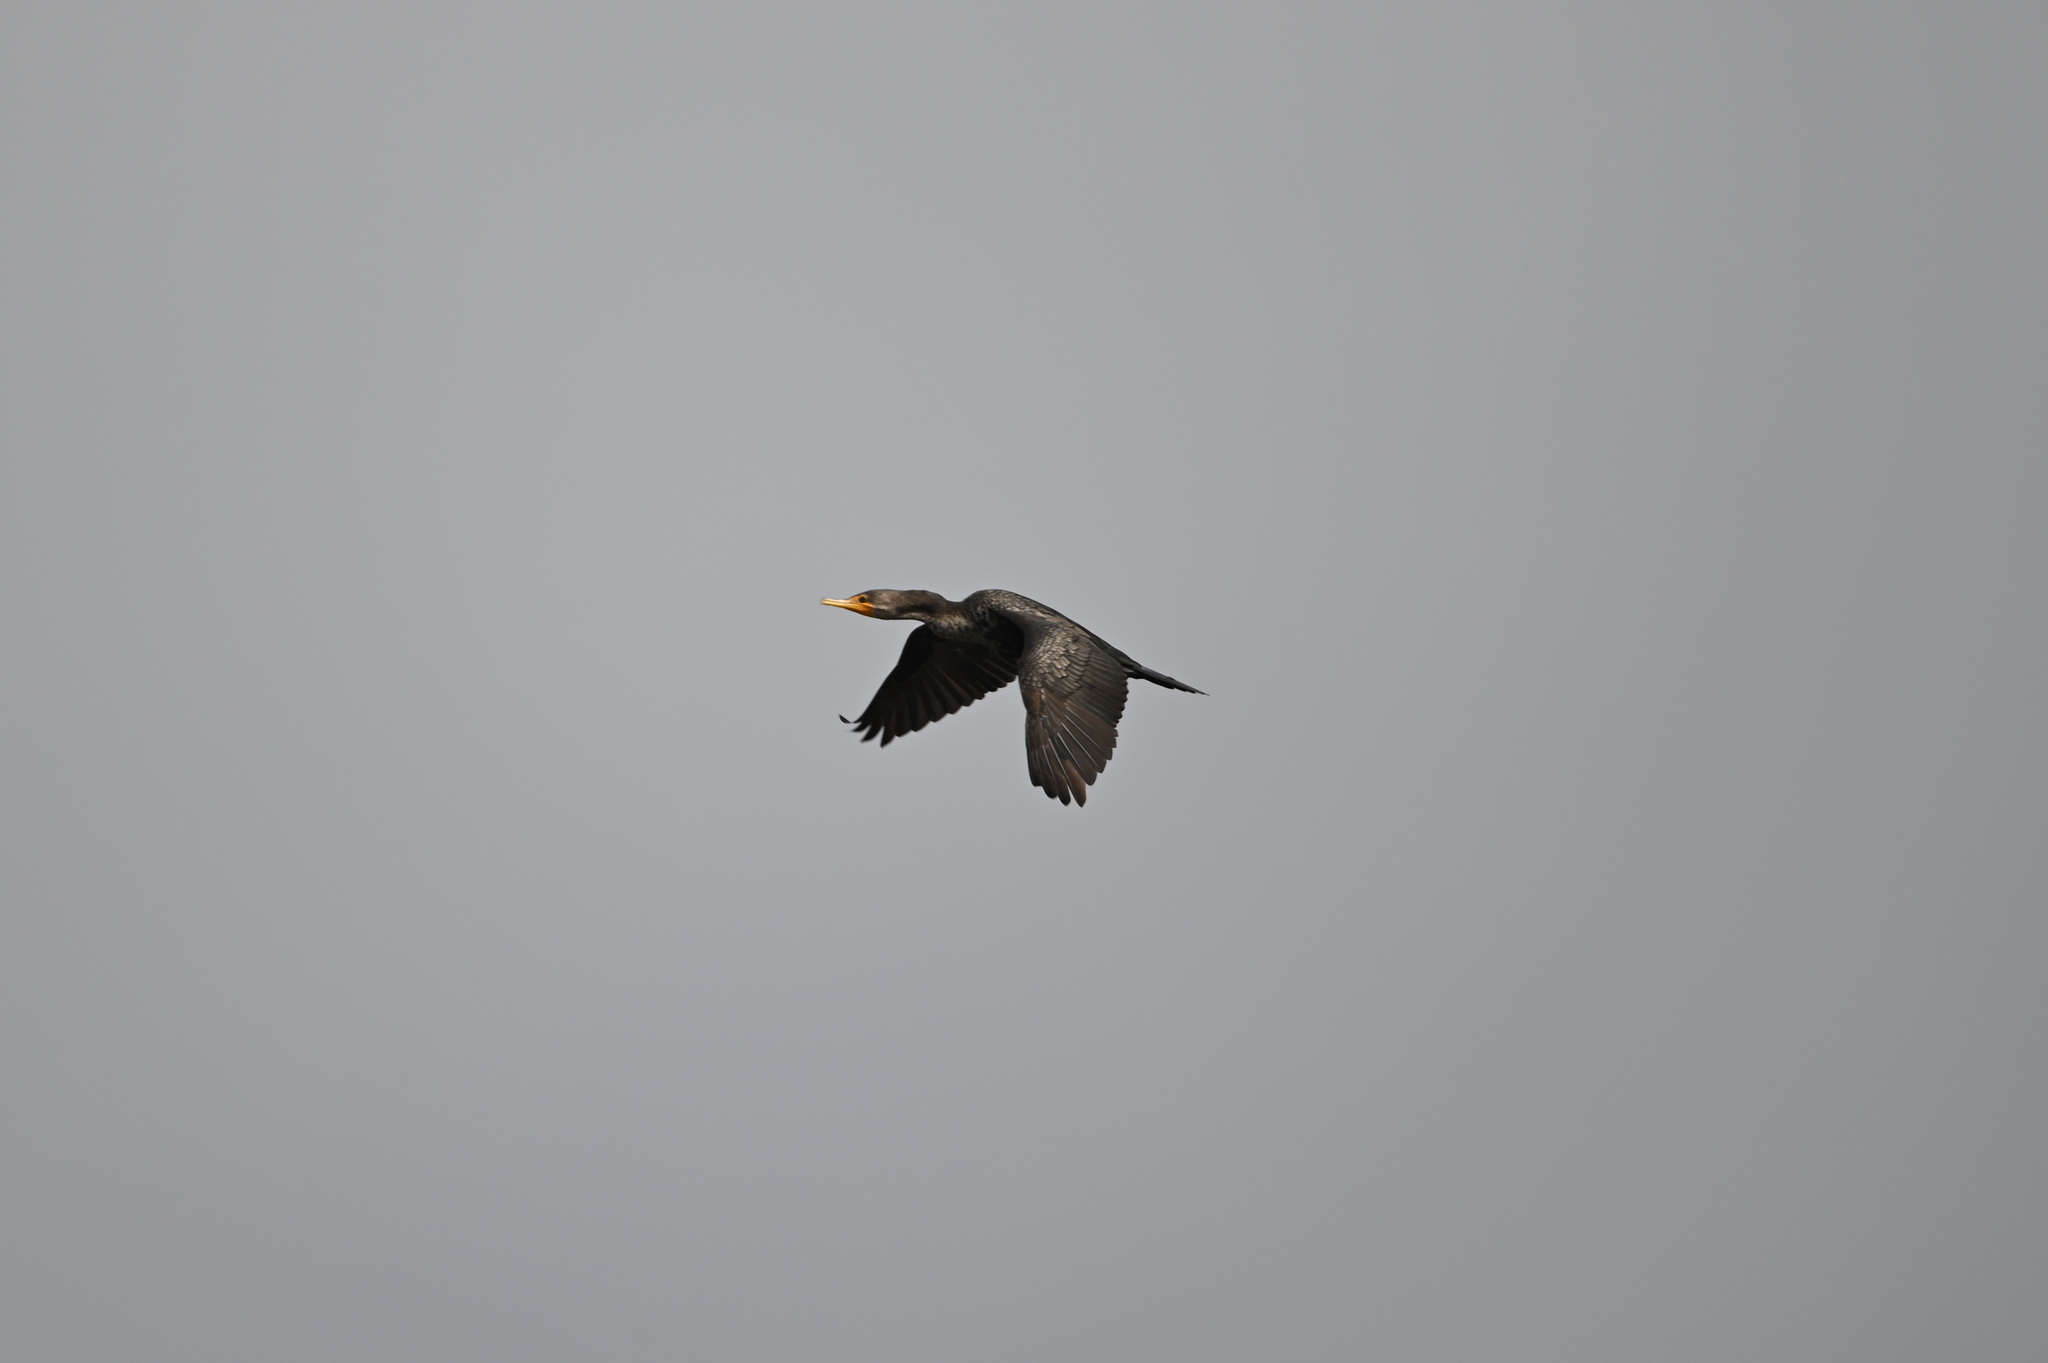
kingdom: Animalia
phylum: Chordata
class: Aves
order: Suliformes
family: Phalacrocoracidae
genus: Phalacrocorax
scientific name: Phalacrocorax auritus
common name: Double-crested cormorant
